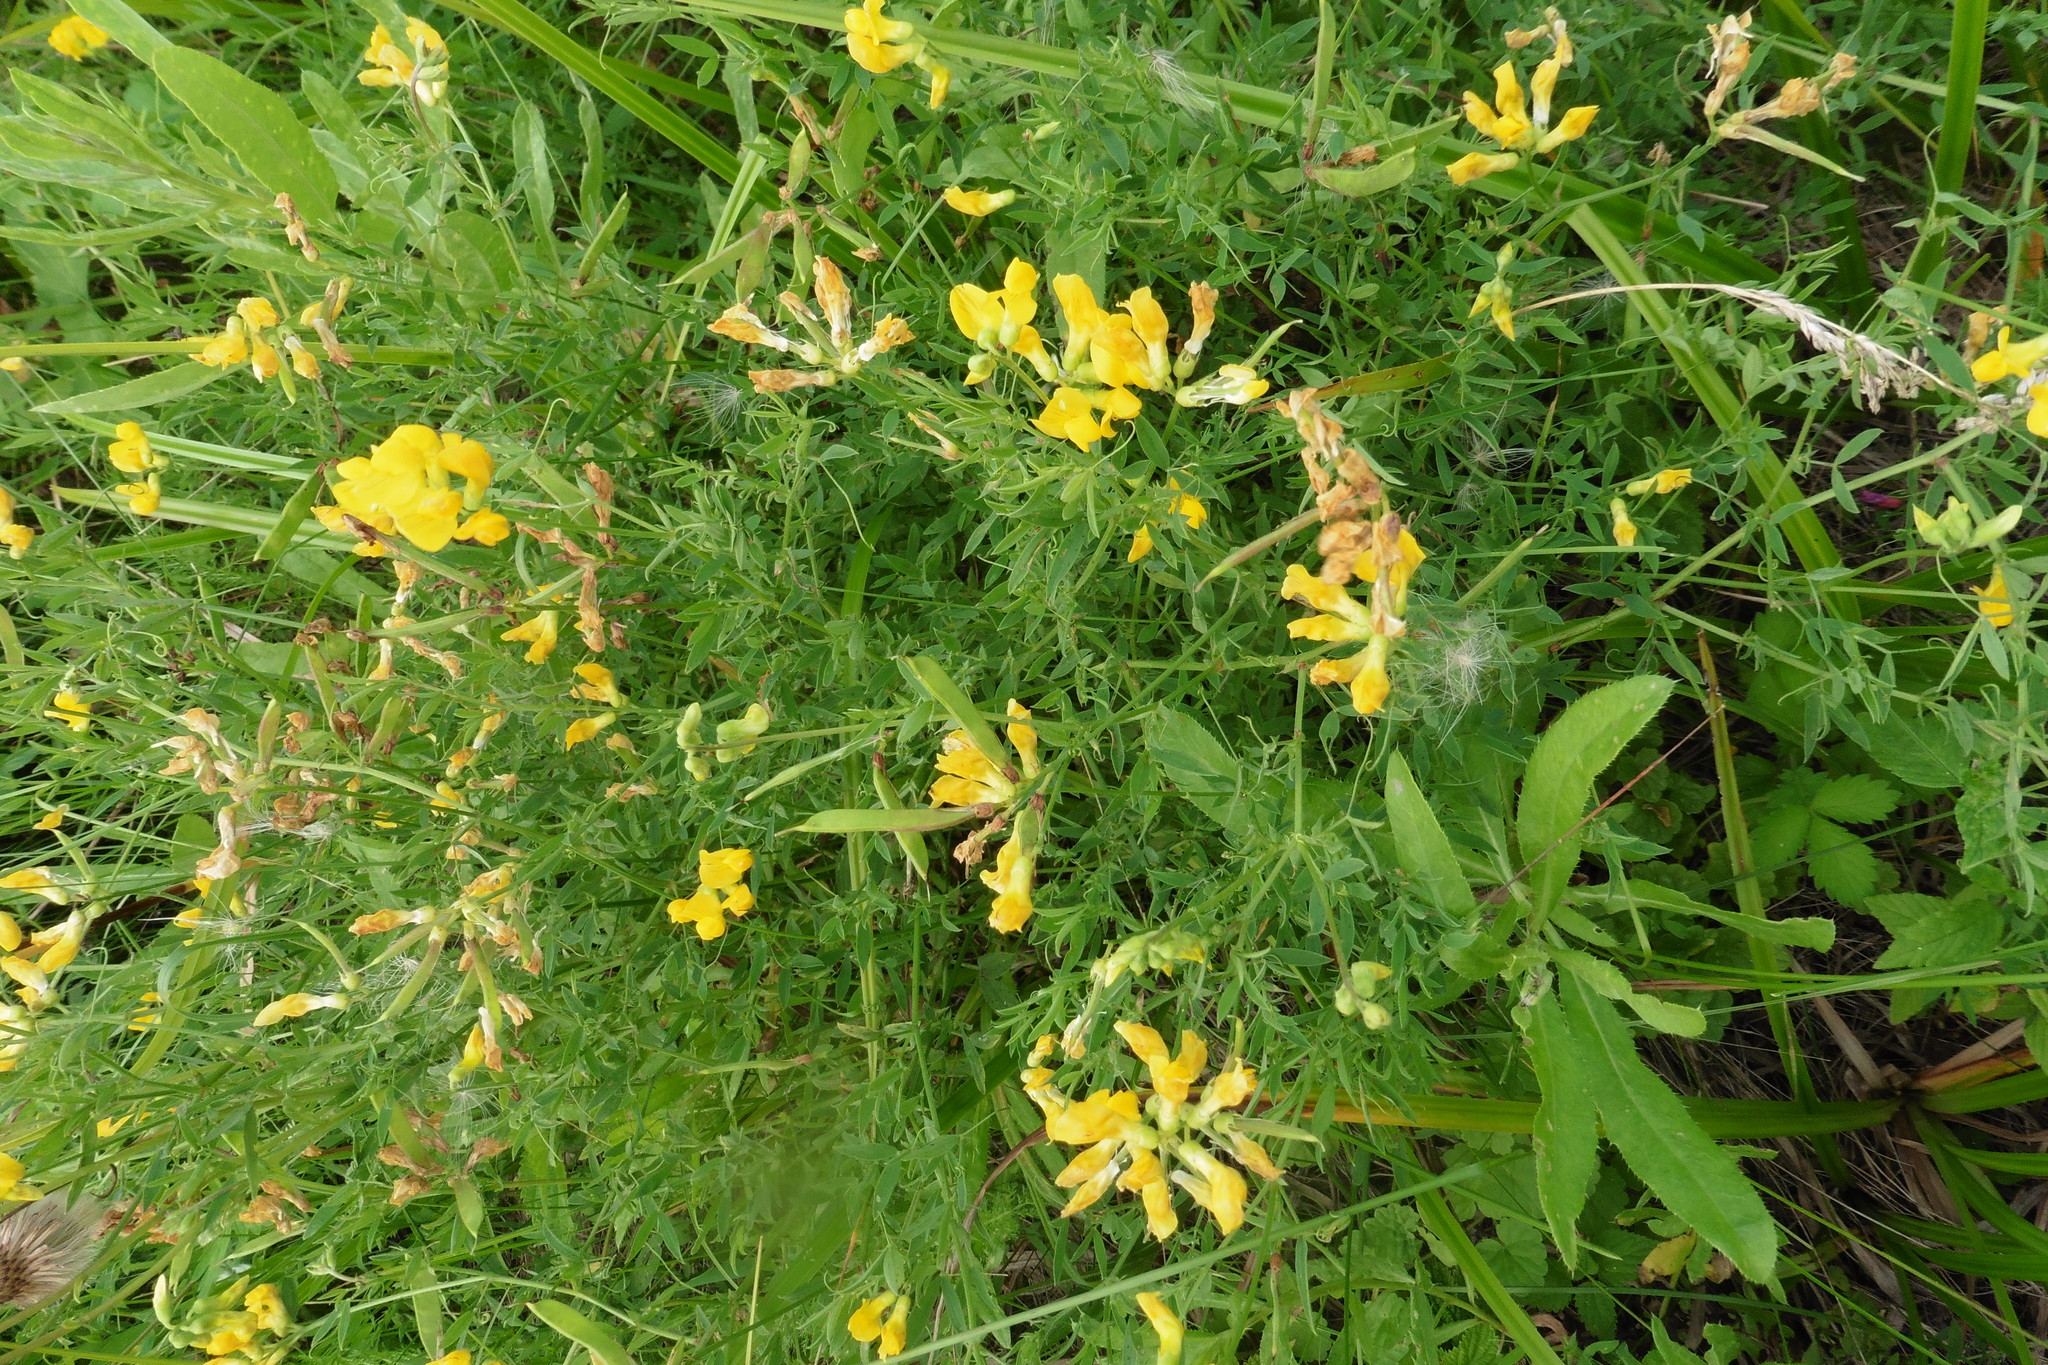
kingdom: Plantae
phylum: Tracheophyta
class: Magnoliopsida
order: Fabales
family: Fabaceae
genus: Lathyrus
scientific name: Lathyrus pratensis
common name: Meadow vetchling
